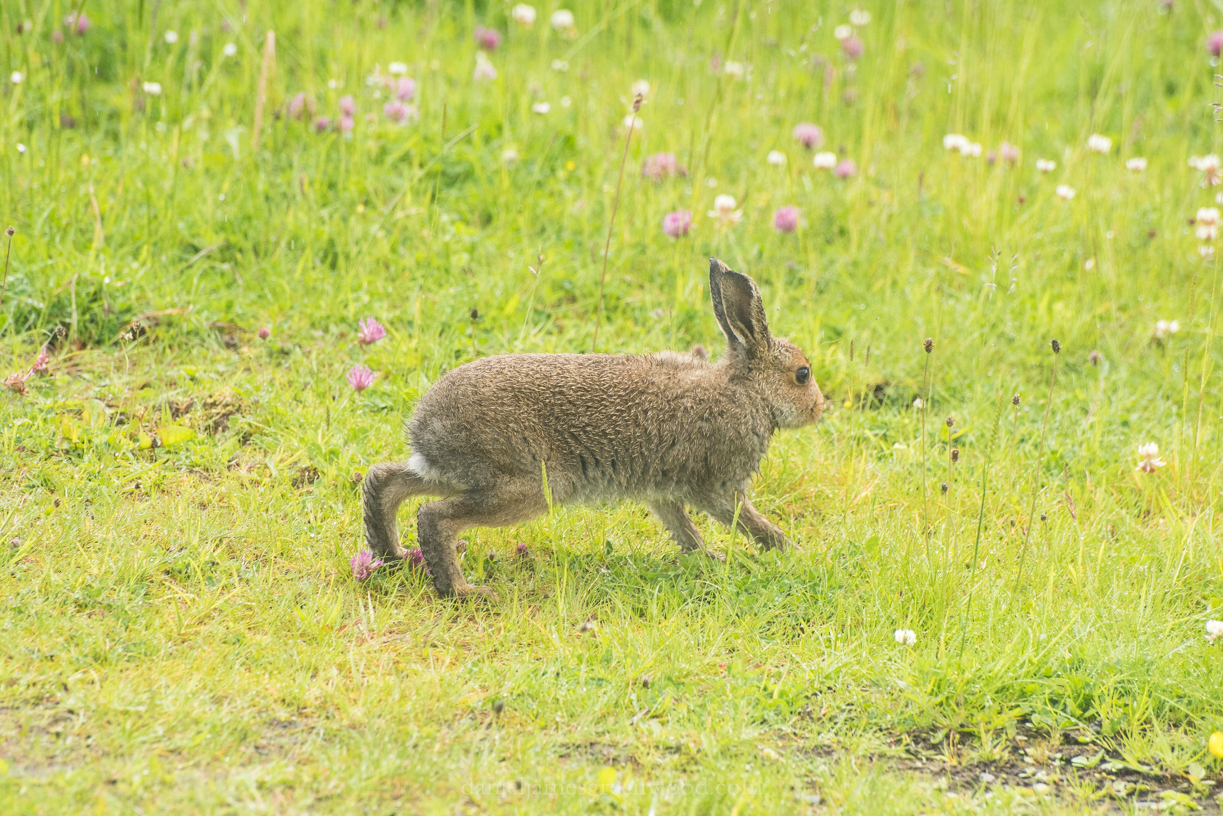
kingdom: Animalia
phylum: Chordata
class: Mammalia
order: Lagomorpha
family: Leporidae
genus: Lepus
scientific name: Lepus timidus
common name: Mountain hare
